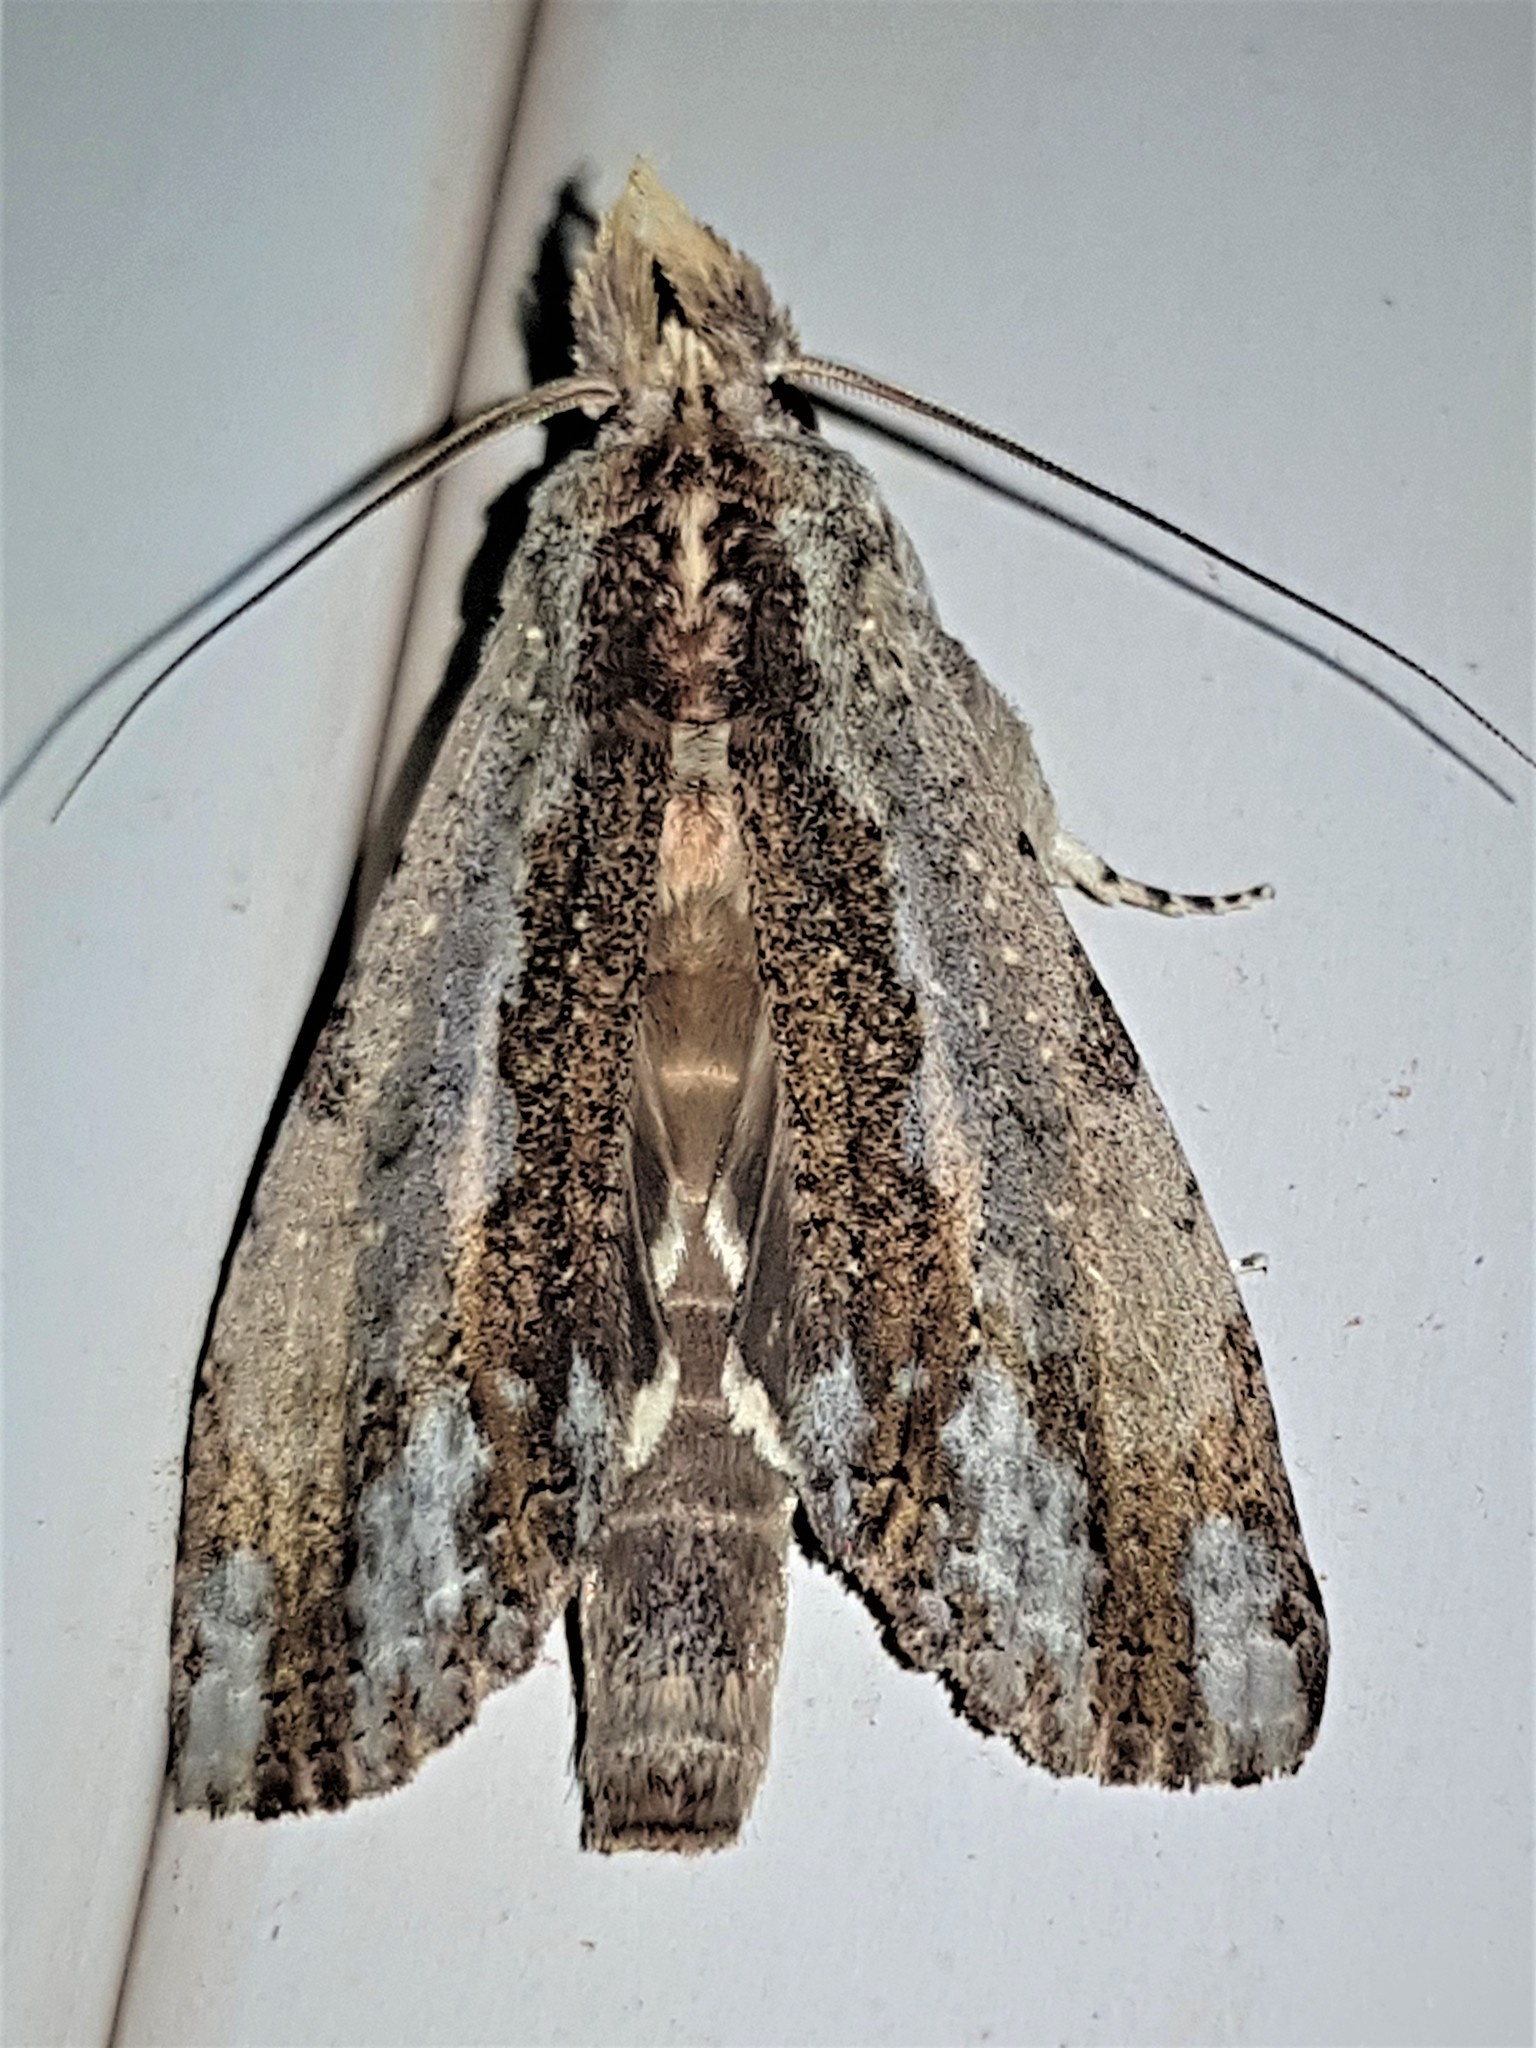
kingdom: Animalia
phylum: Arthropoda
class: Insecta
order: Lepidoptera
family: Notodontidae
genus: Nystalea
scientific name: Nystalea joanna
